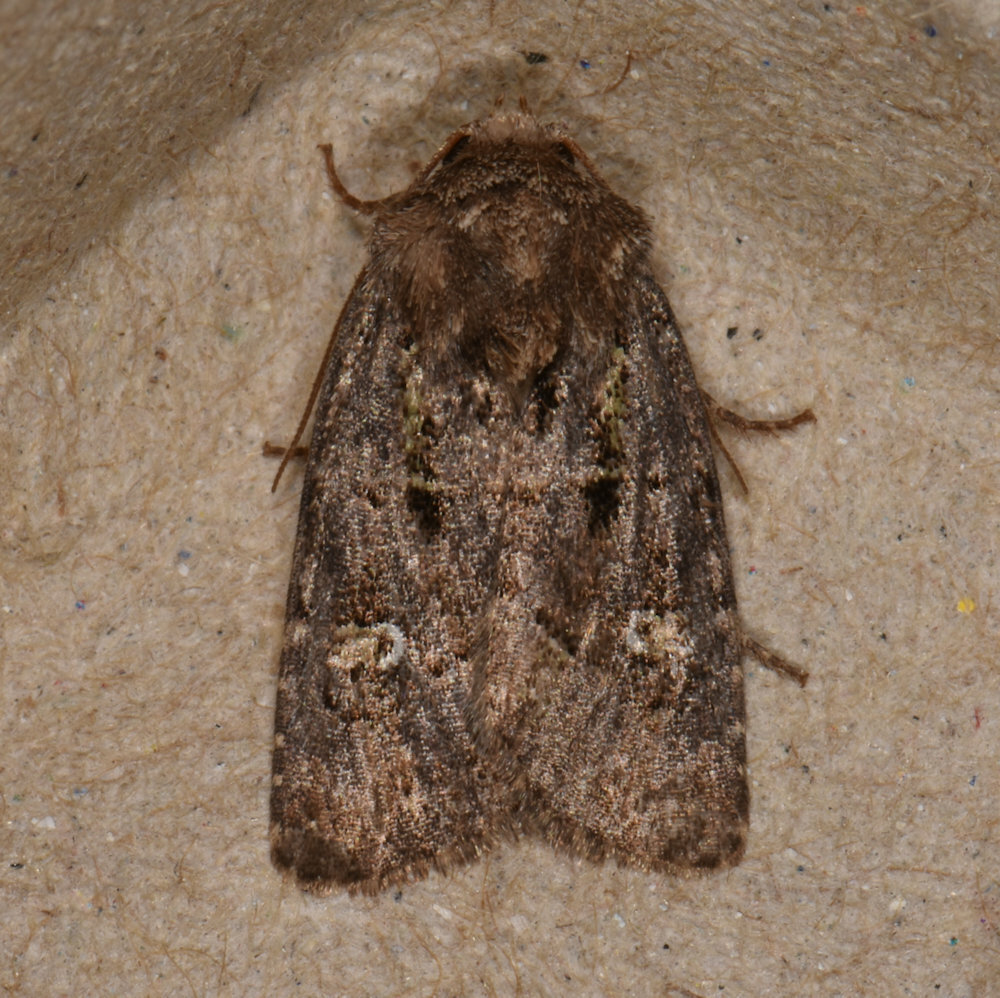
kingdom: Animalia
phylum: Arthropoda
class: Insecta
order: Lepidoptera
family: Noctuidae
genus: Lacinipolia
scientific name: Lacinipolia renigera
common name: Kidney-spotted minor
